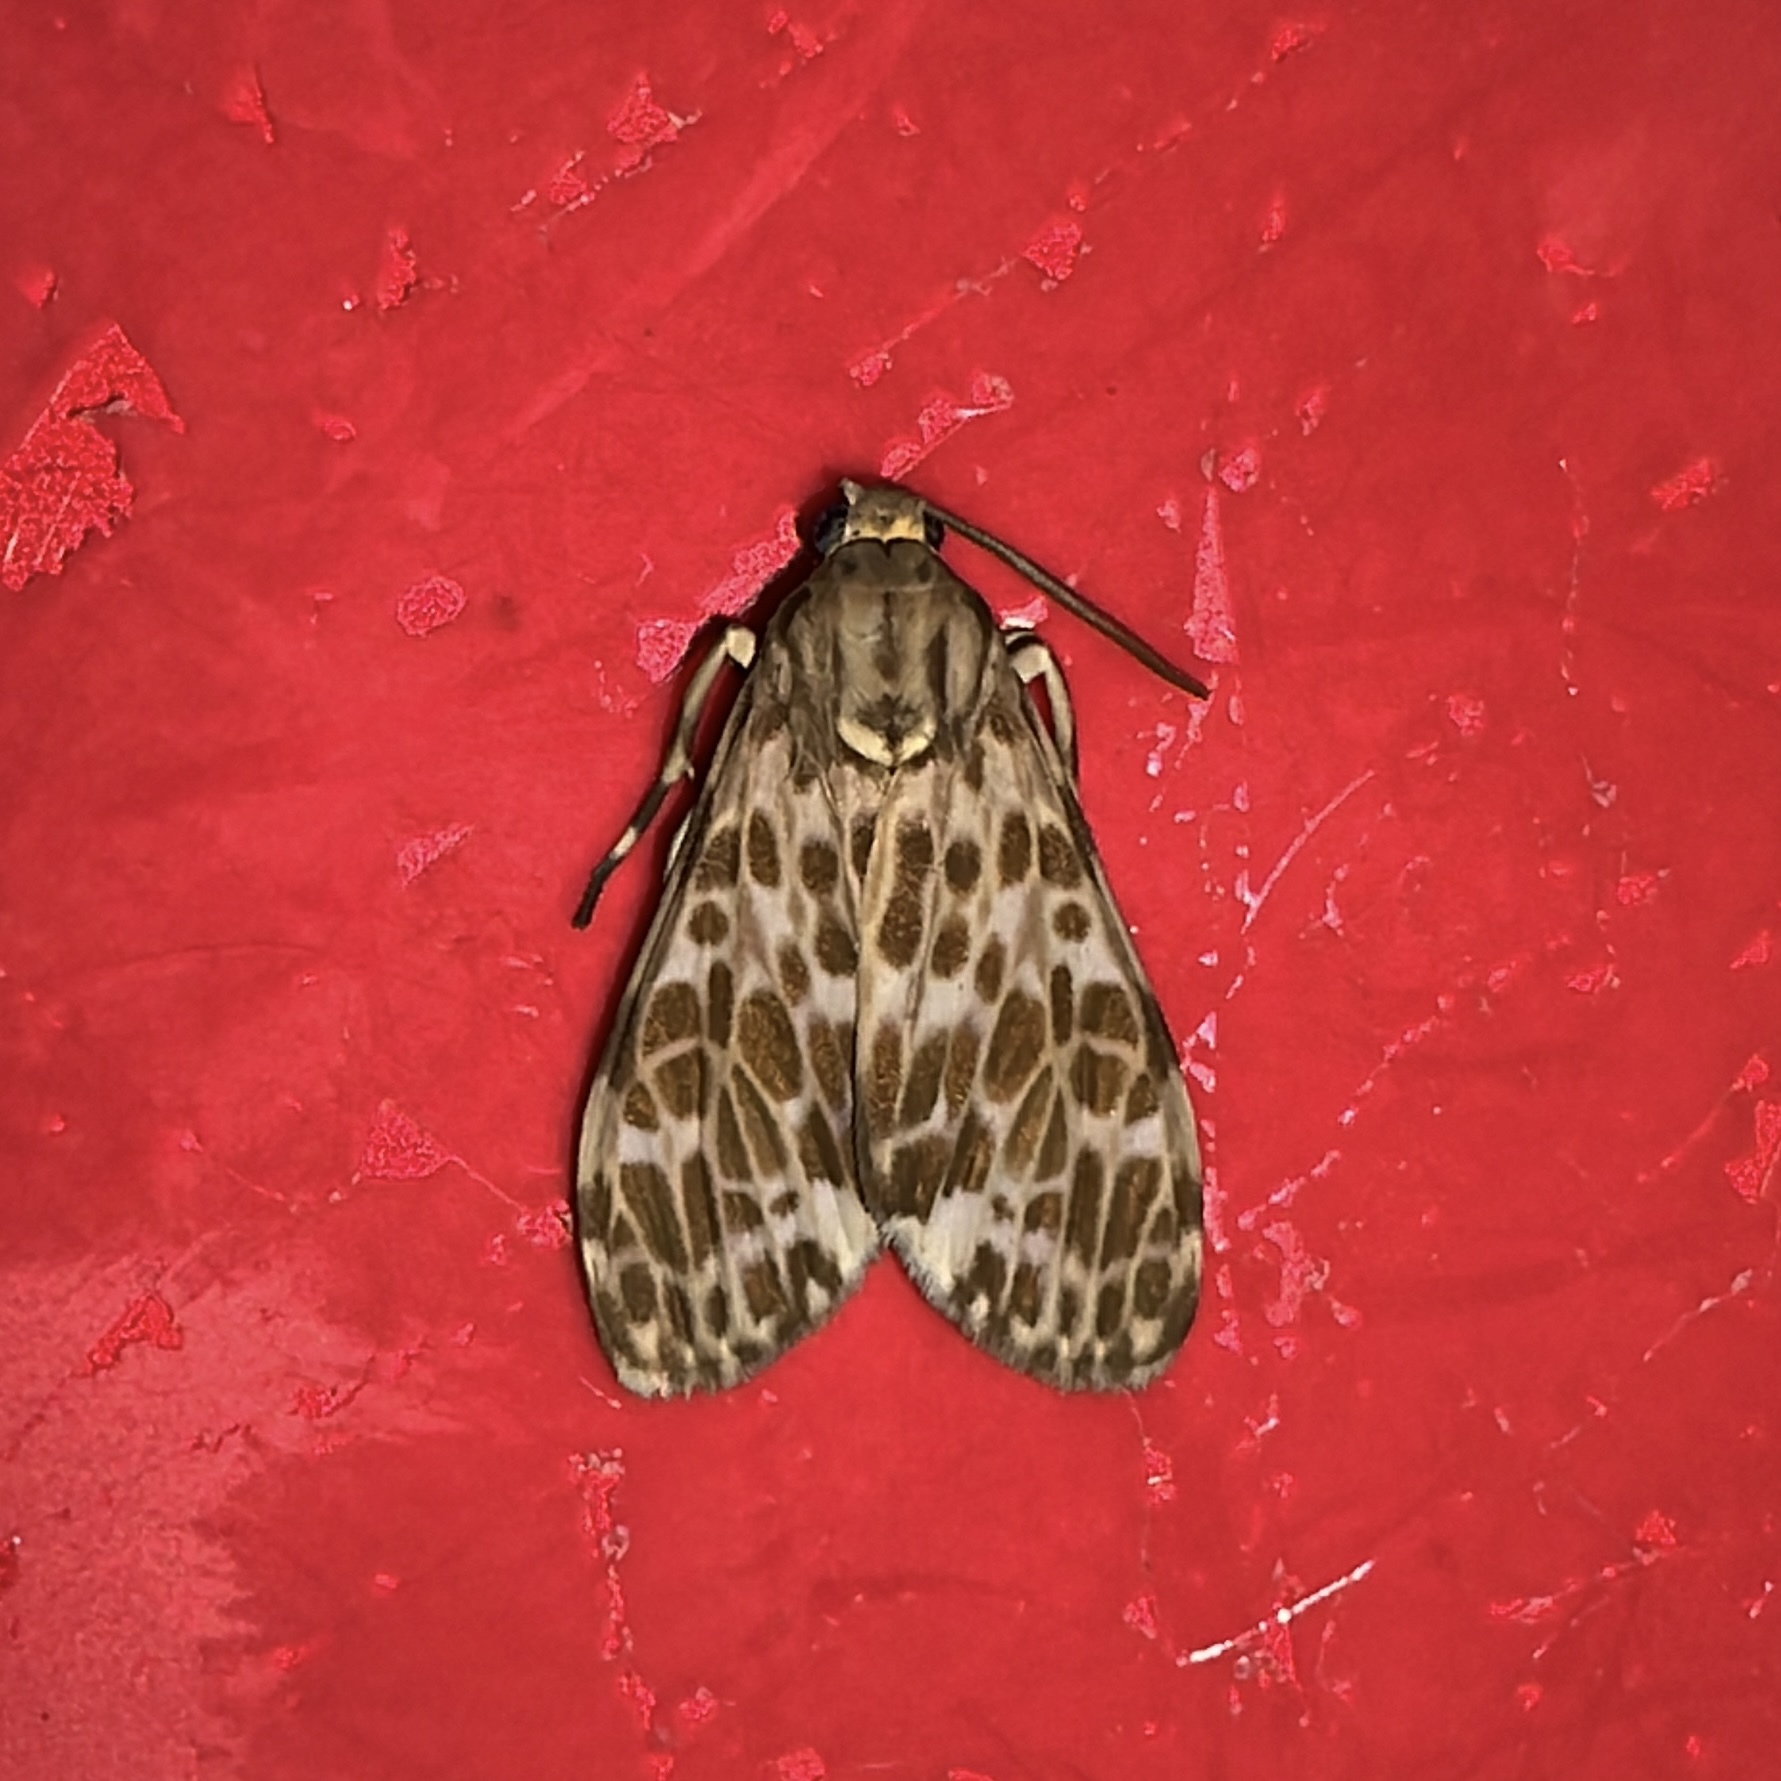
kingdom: Animalia
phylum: Arthropoda
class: Insecta
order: Lepidoptera
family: Erebidae
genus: Eucereon
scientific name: Eucereon punctata
